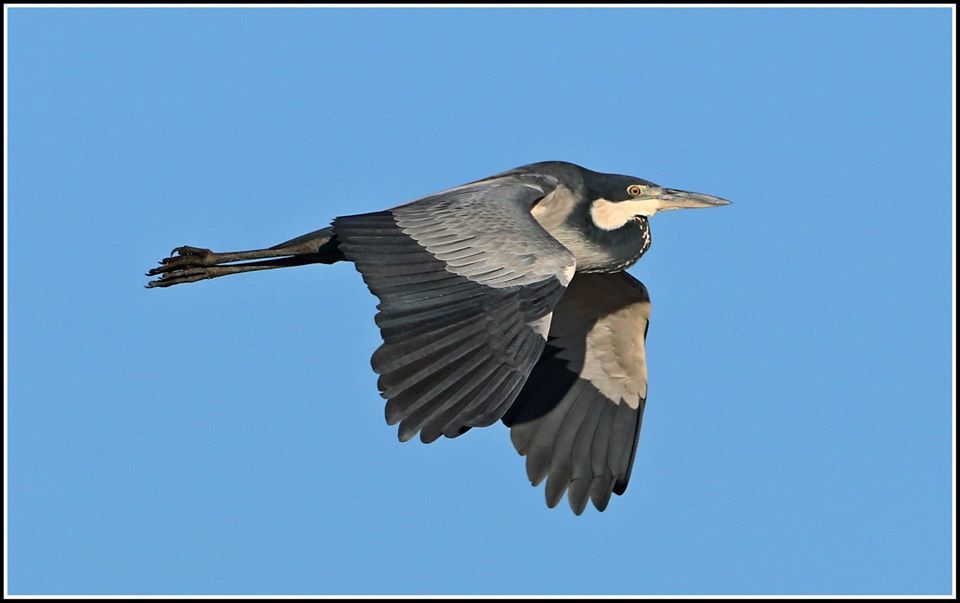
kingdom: Animalia
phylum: Chordata
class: Aves
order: Pelecaniformes
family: Ardeidae
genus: Ardea
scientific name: Ardea melanocephala
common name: Black-headed heron
